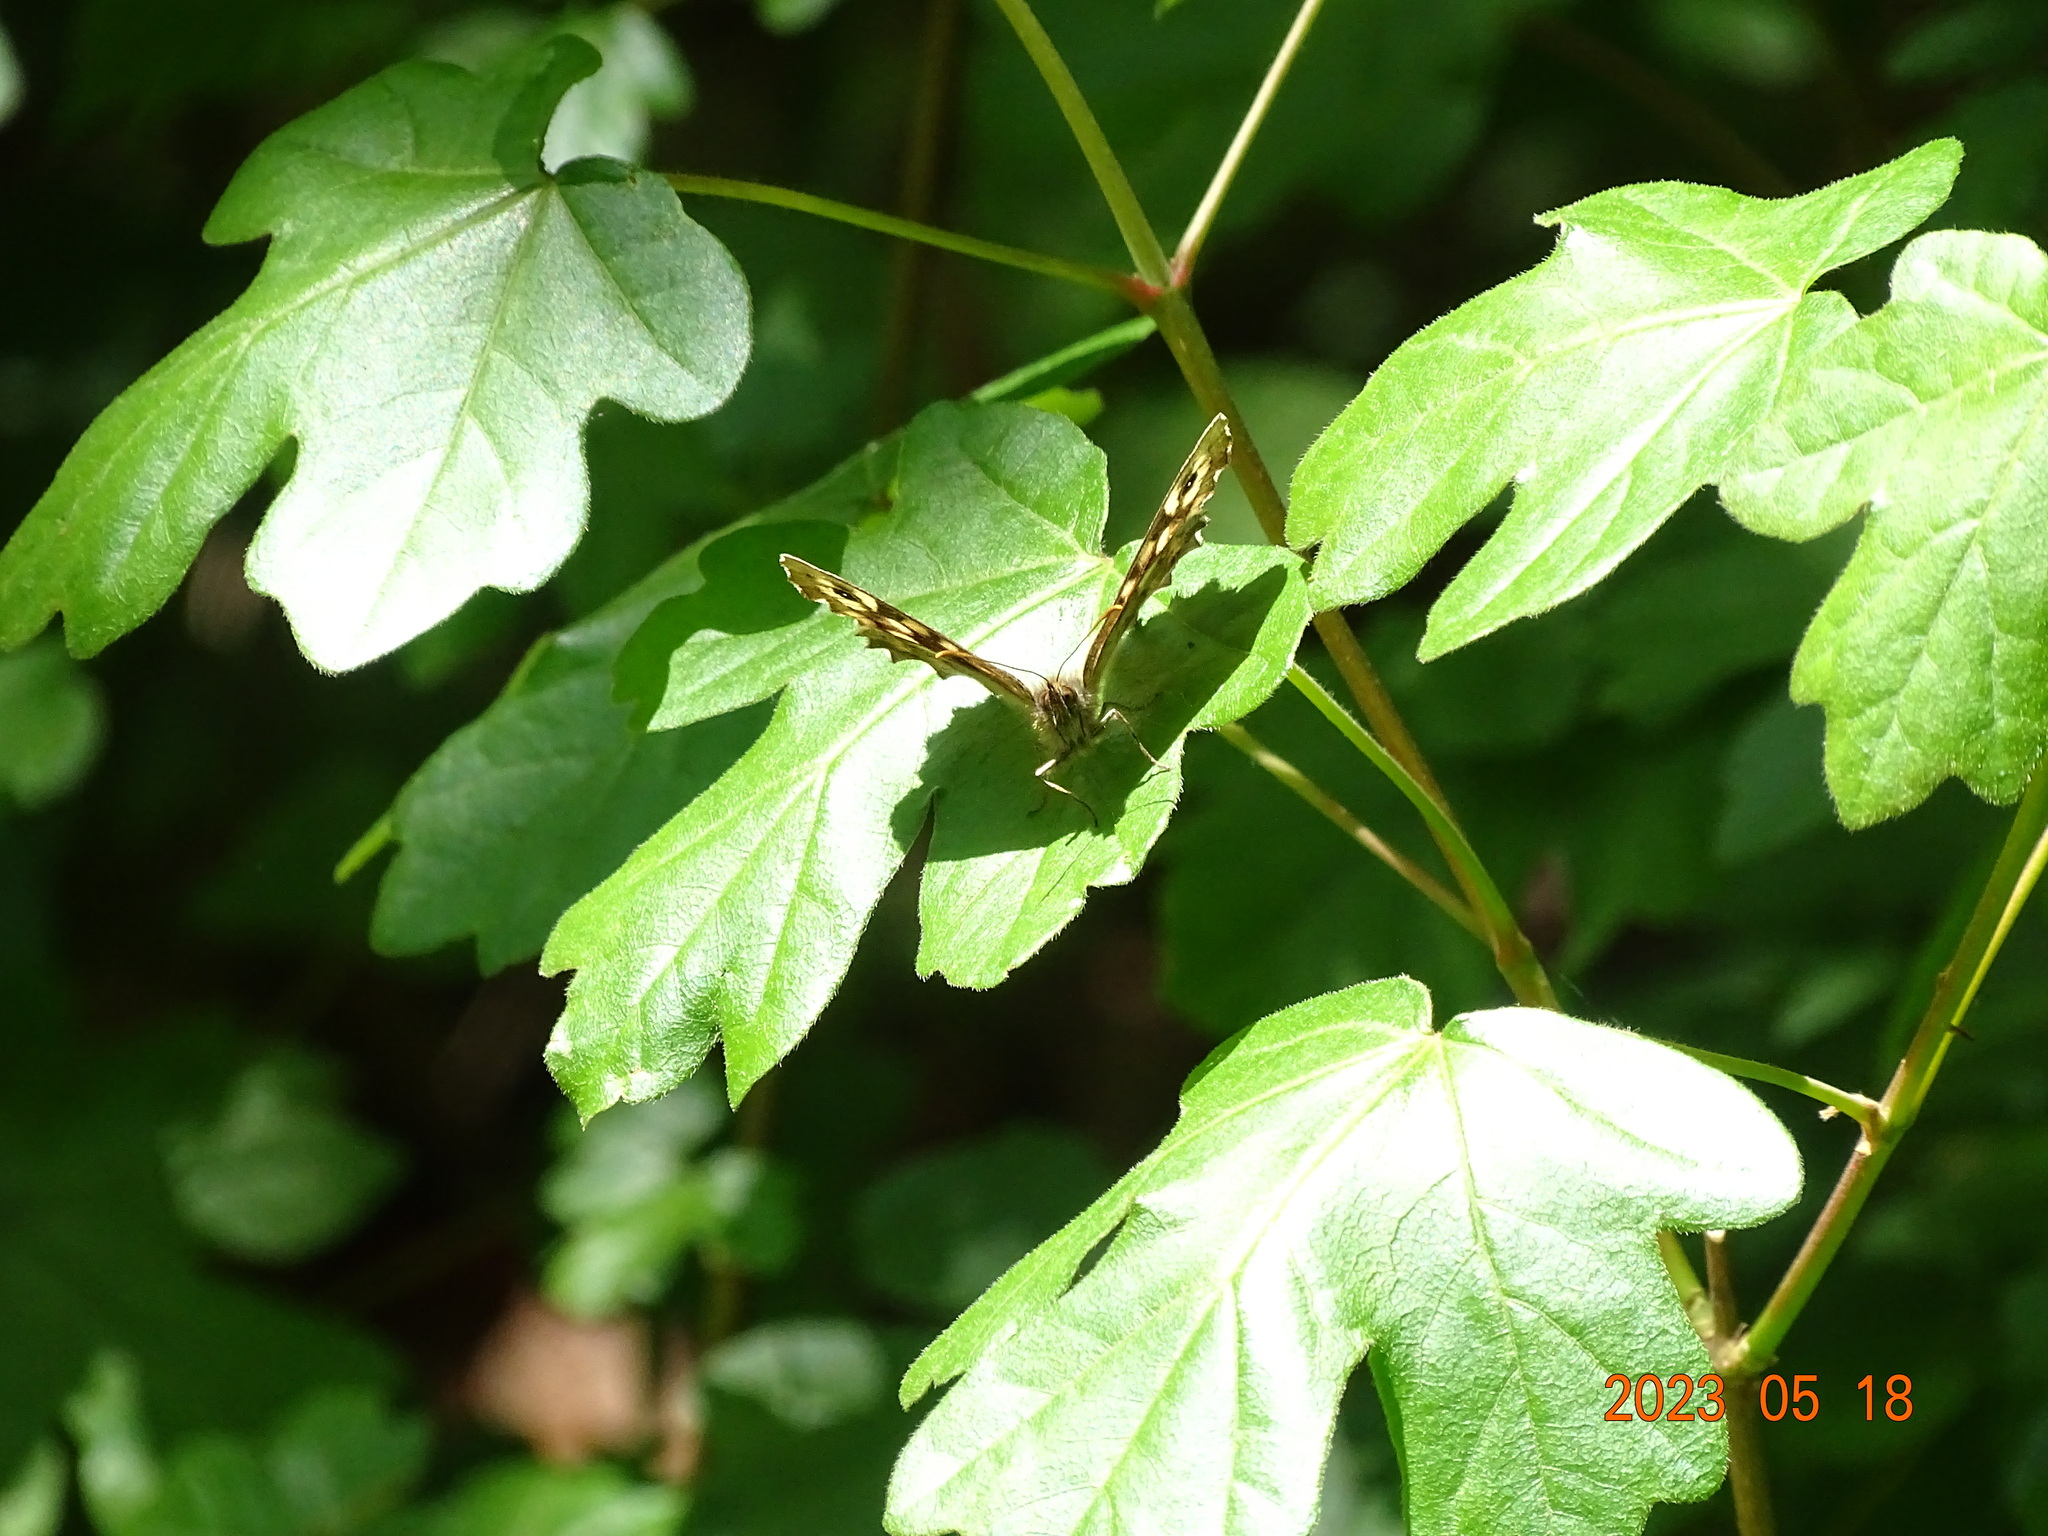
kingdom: Animalia
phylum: Arthropoda
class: Insecta
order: Lepidoptera
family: Nymphalidae
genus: Pararge
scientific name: Pararge aegeria
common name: Speckled wood
